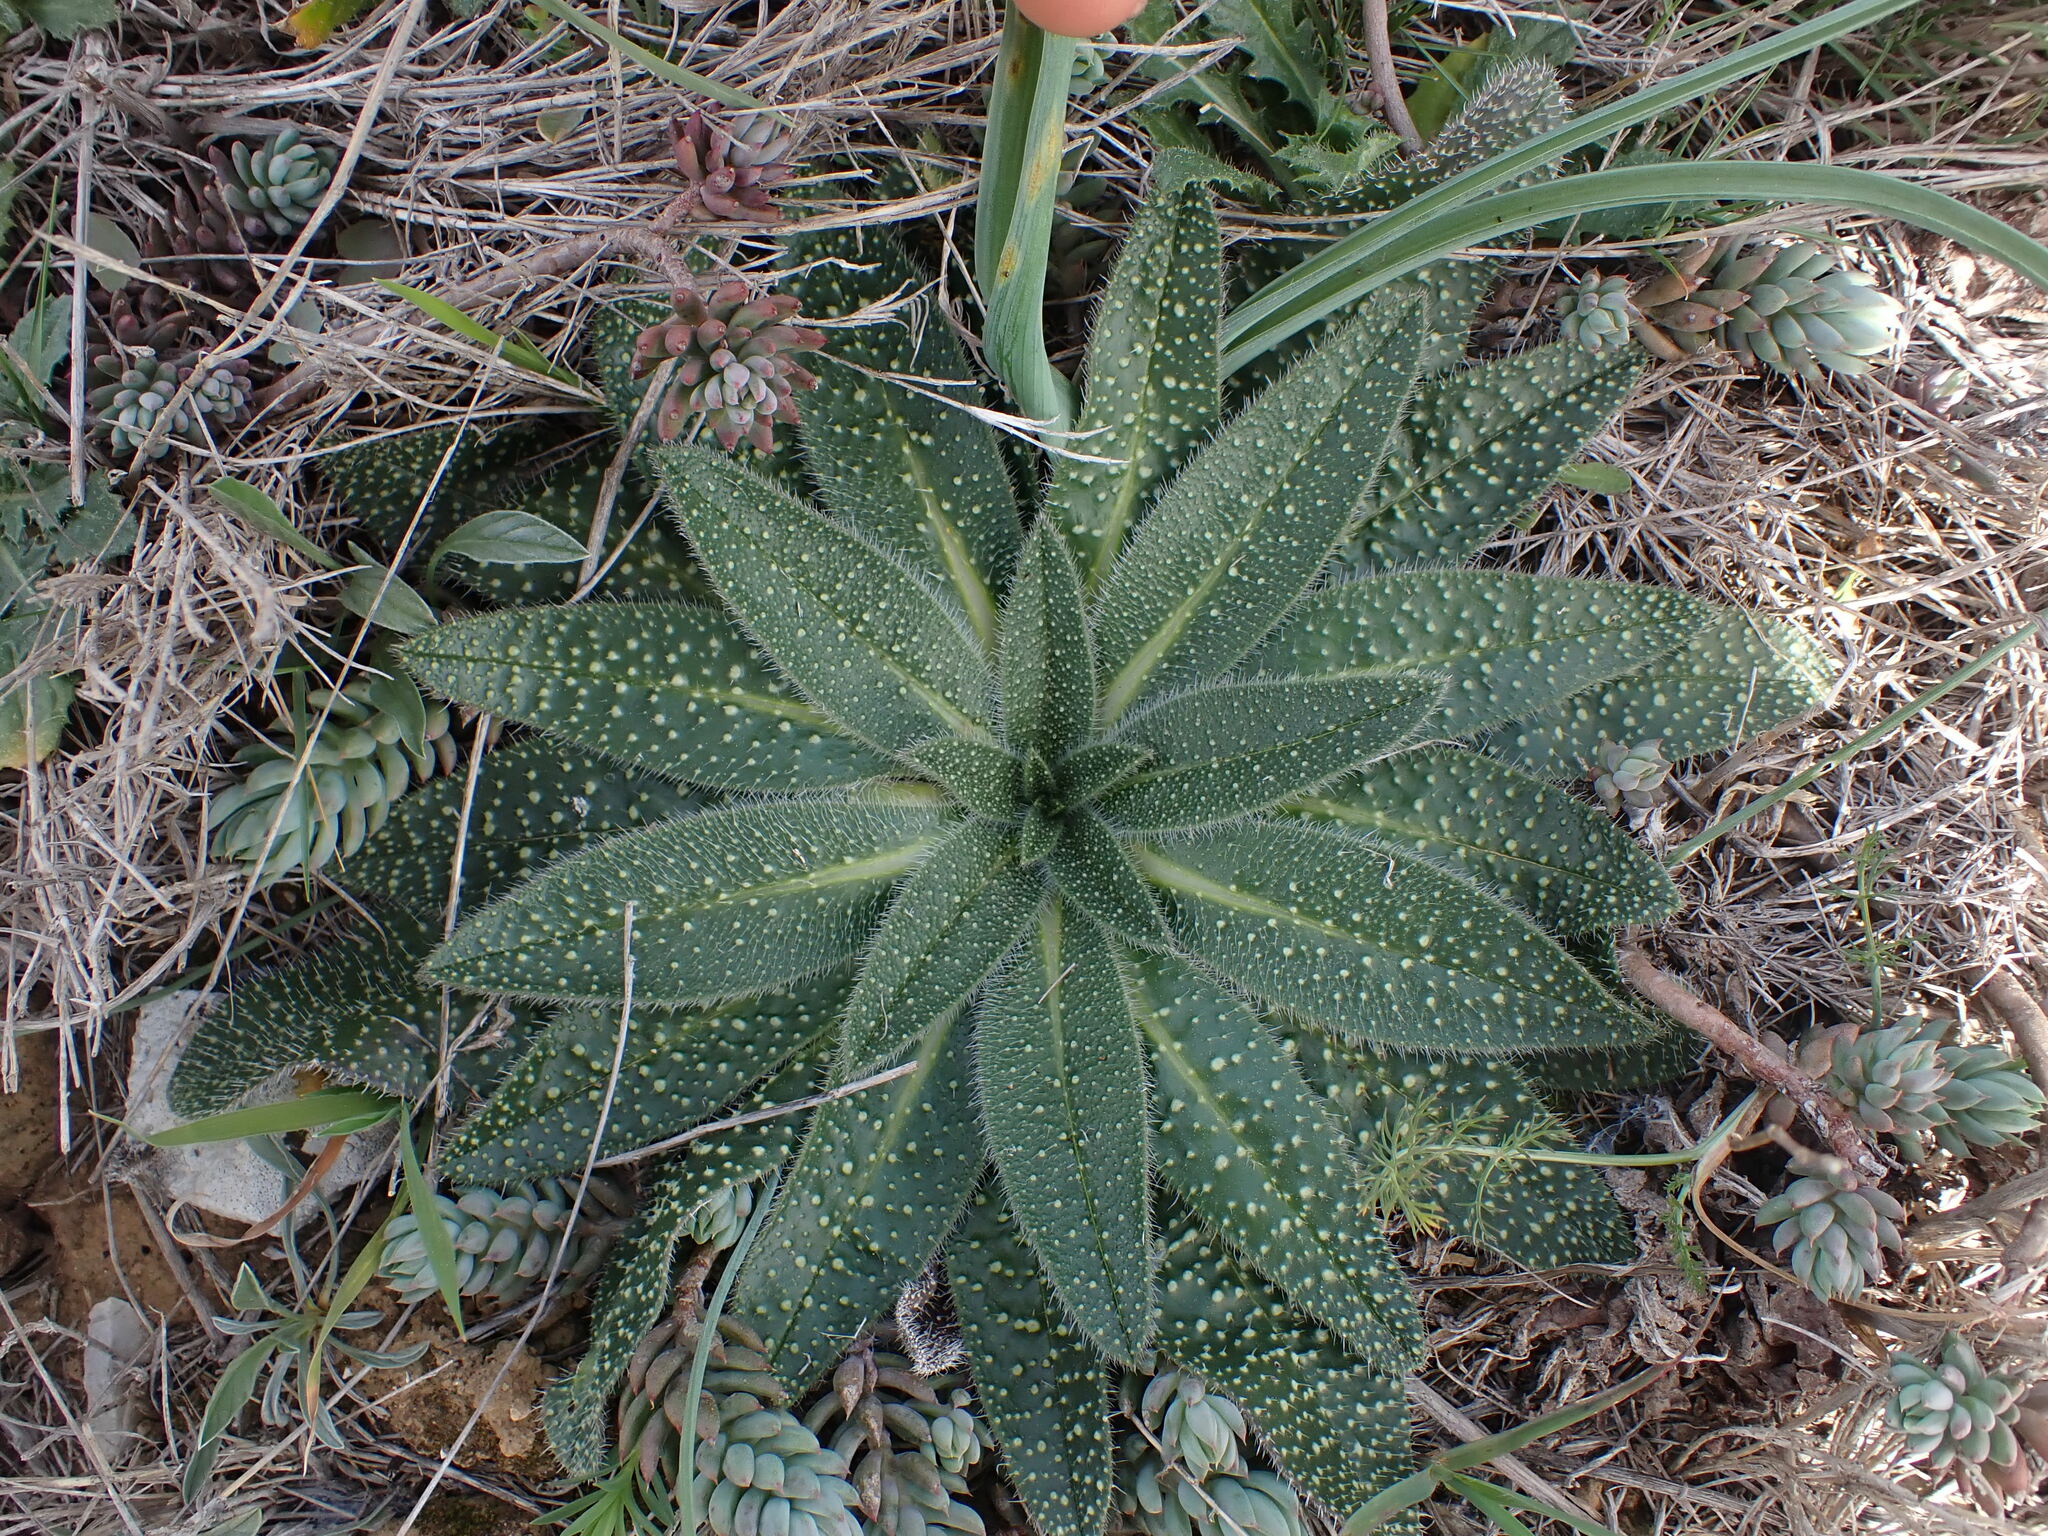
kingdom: Plantae
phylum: Tracheophyta
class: Magnoliopsida
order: Boraginales
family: Boraginaceae
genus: Echium
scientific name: Echium asperrimum
